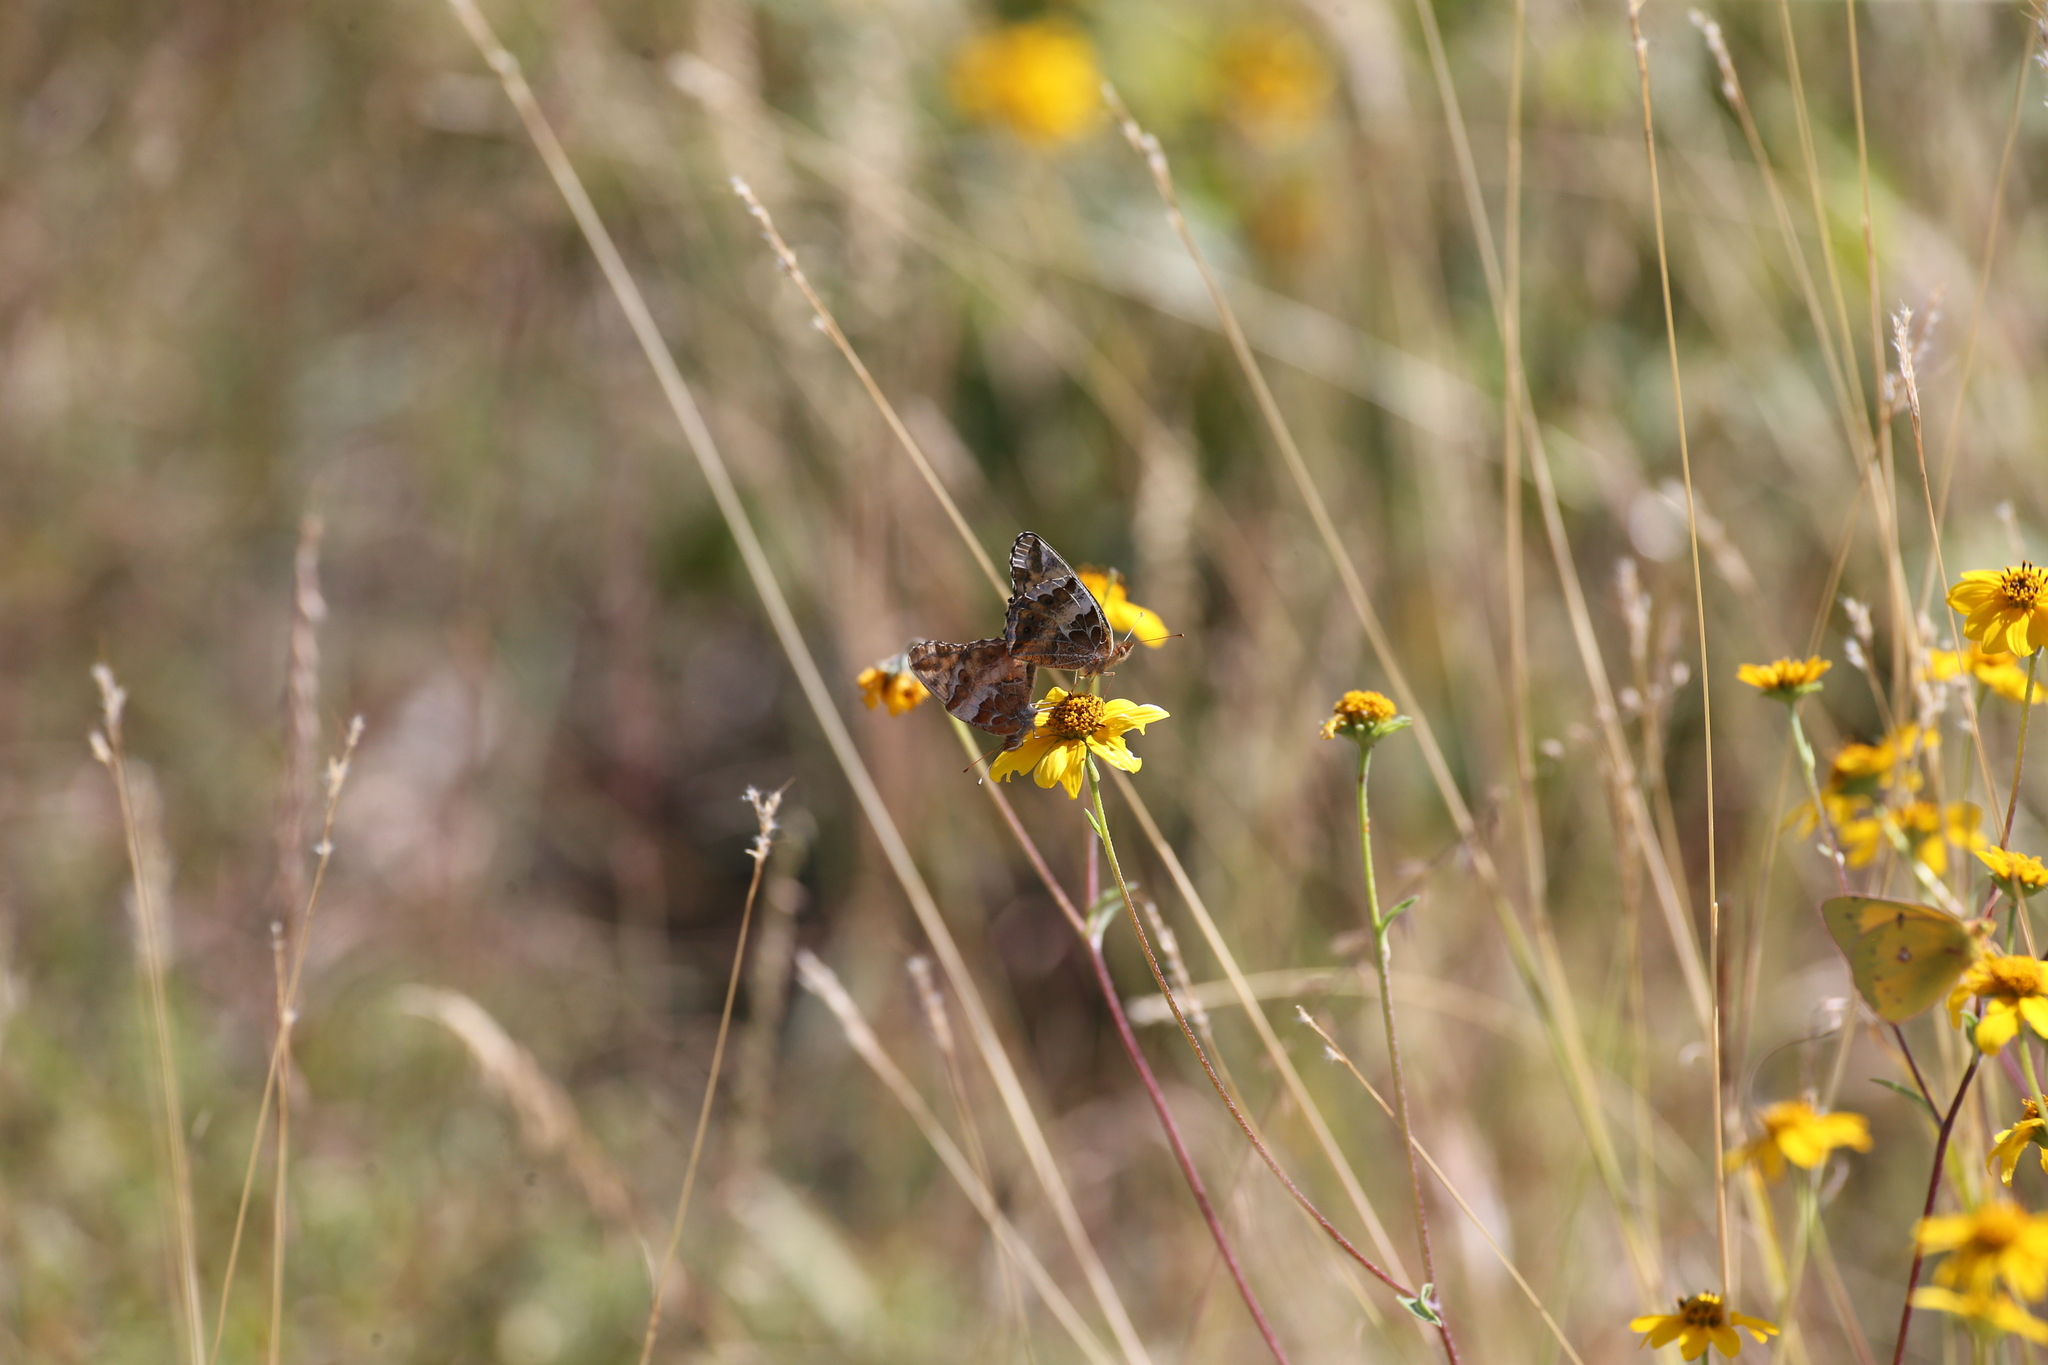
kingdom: Animalia
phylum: Arthropoda
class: Insecta
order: Lepidoptera
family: Nymphalidae
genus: Euptoieta
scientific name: Euptoieta claudia
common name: Variegated fritillary
